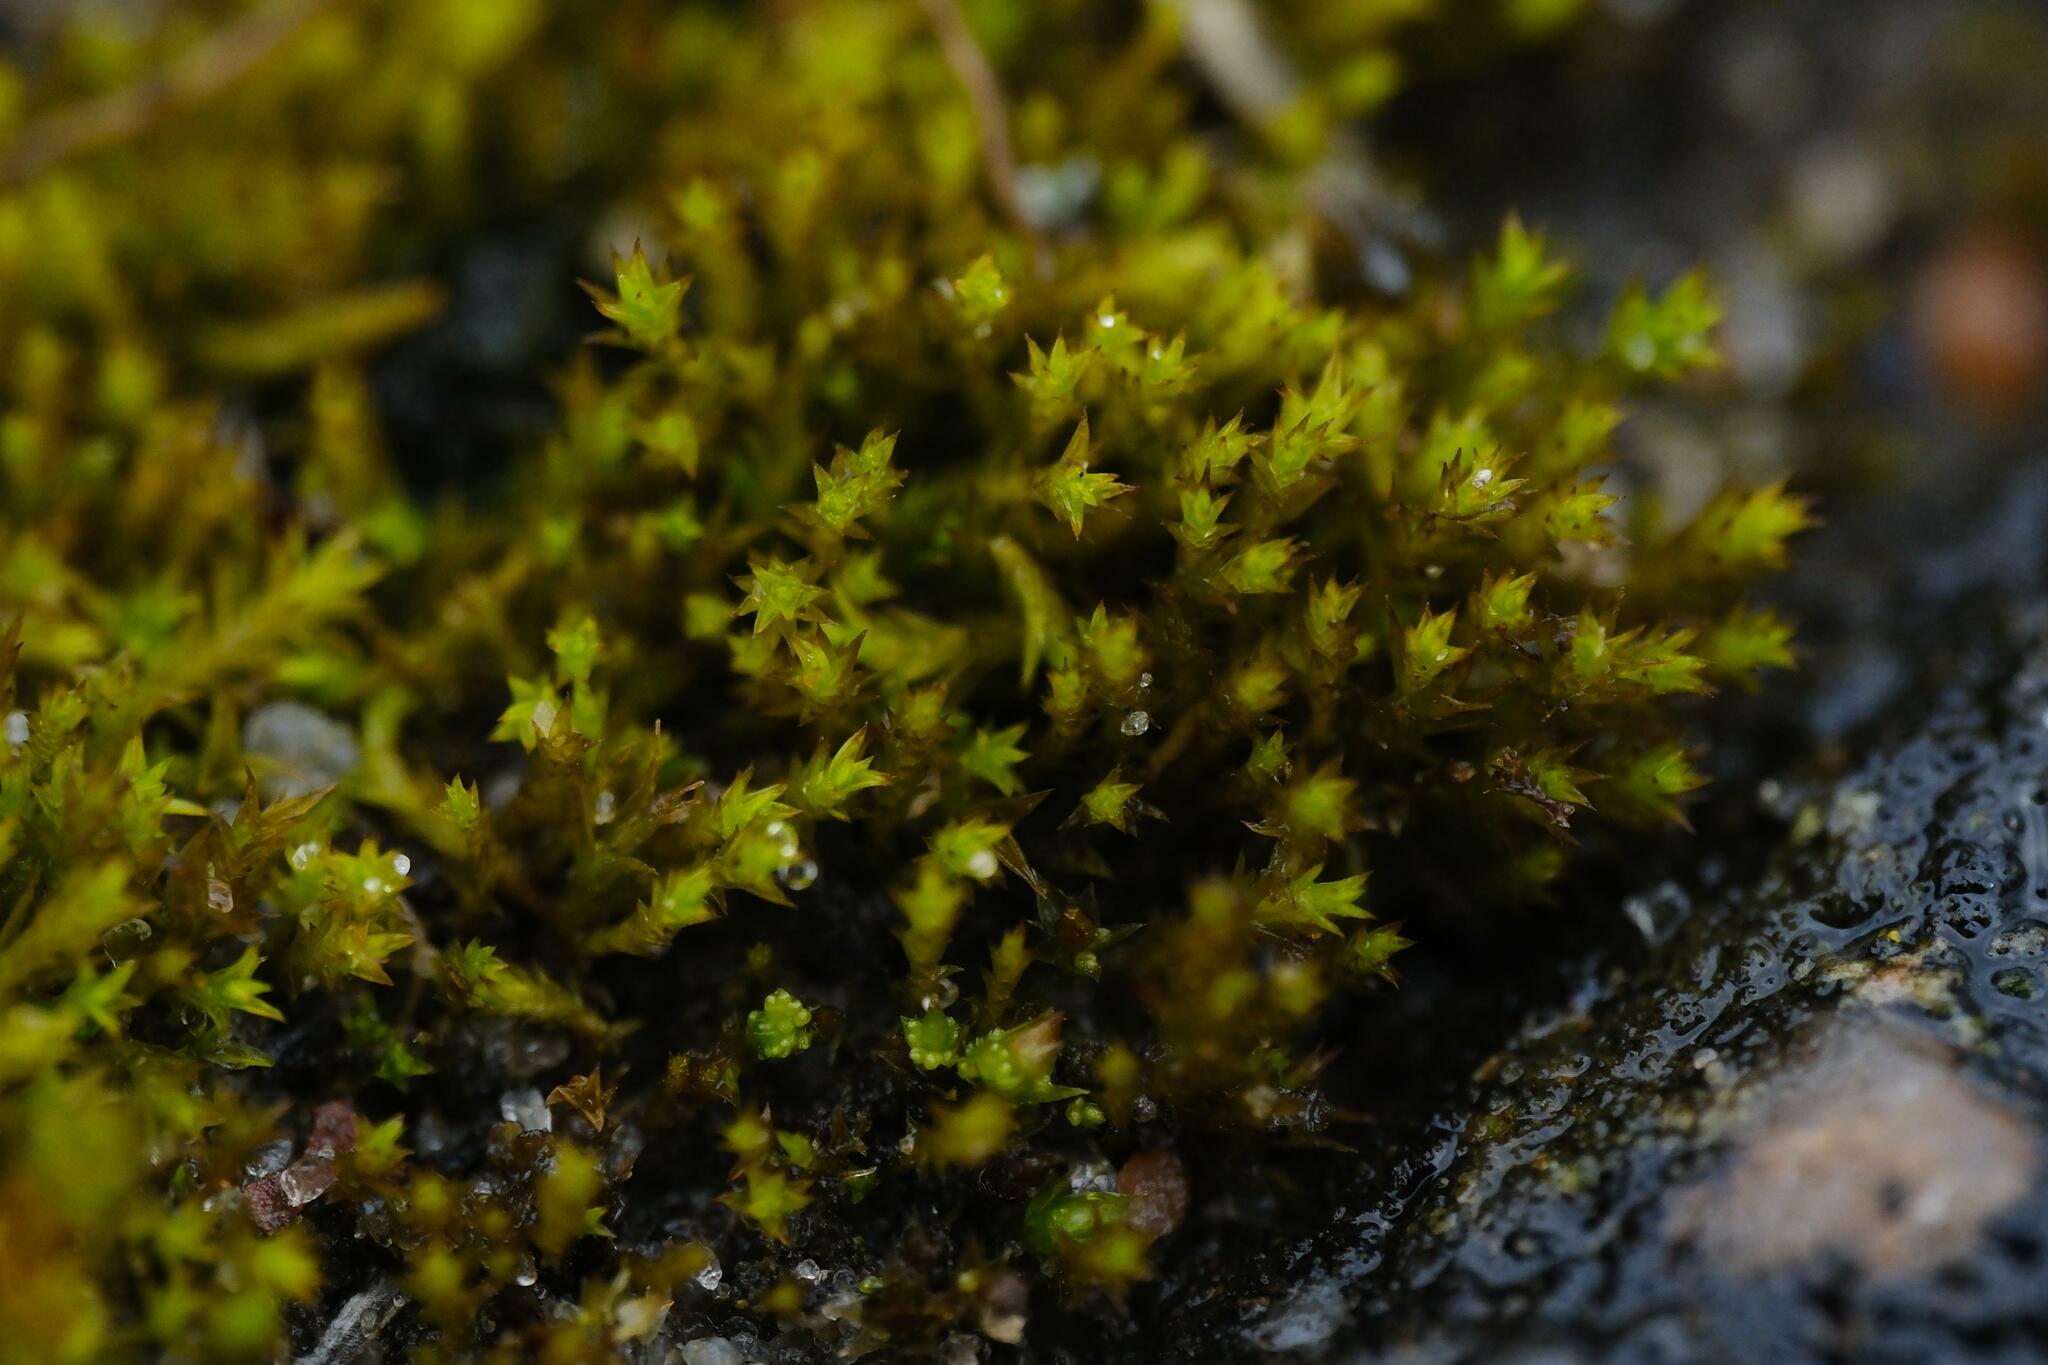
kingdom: Plantae
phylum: Bryophyta
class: Bryopsida
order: Pottiales
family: Pottiaceae
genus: Pseudocrossidium
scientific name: Pseudocrossidium hornschuchianum
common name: Hornschuch's beard-moss
